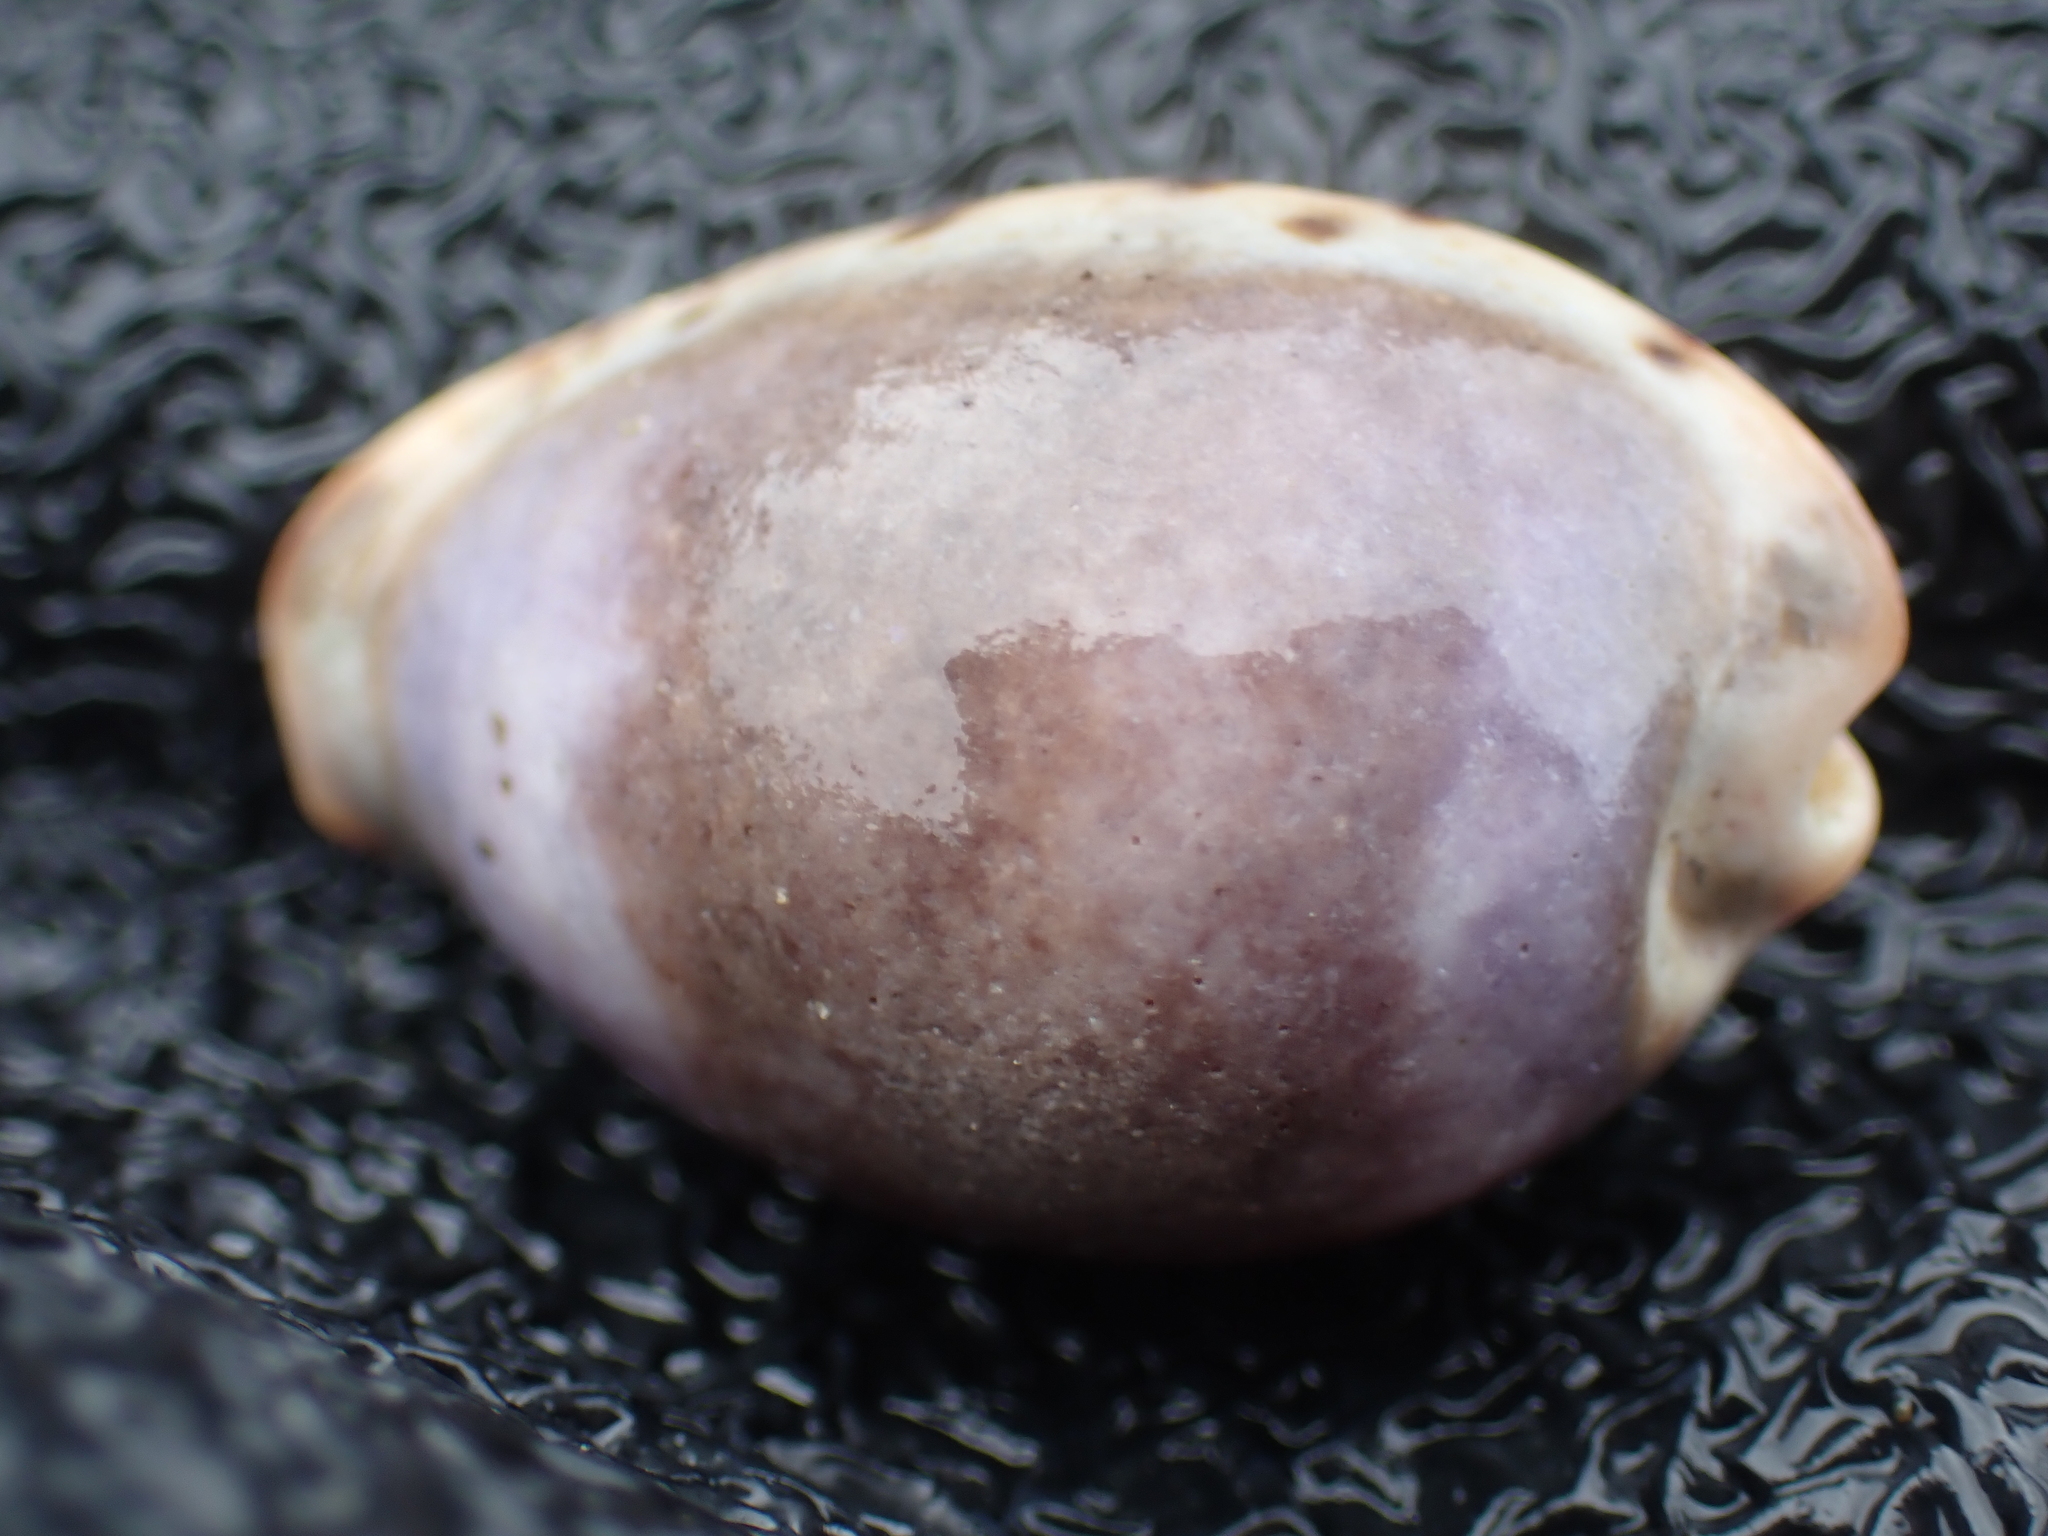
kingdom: Animalia
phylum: Mollusca
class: Gastropoda
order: Littorinimorpha
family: Cypraeidae
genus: Erronea
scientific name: Erronea xanthodon
